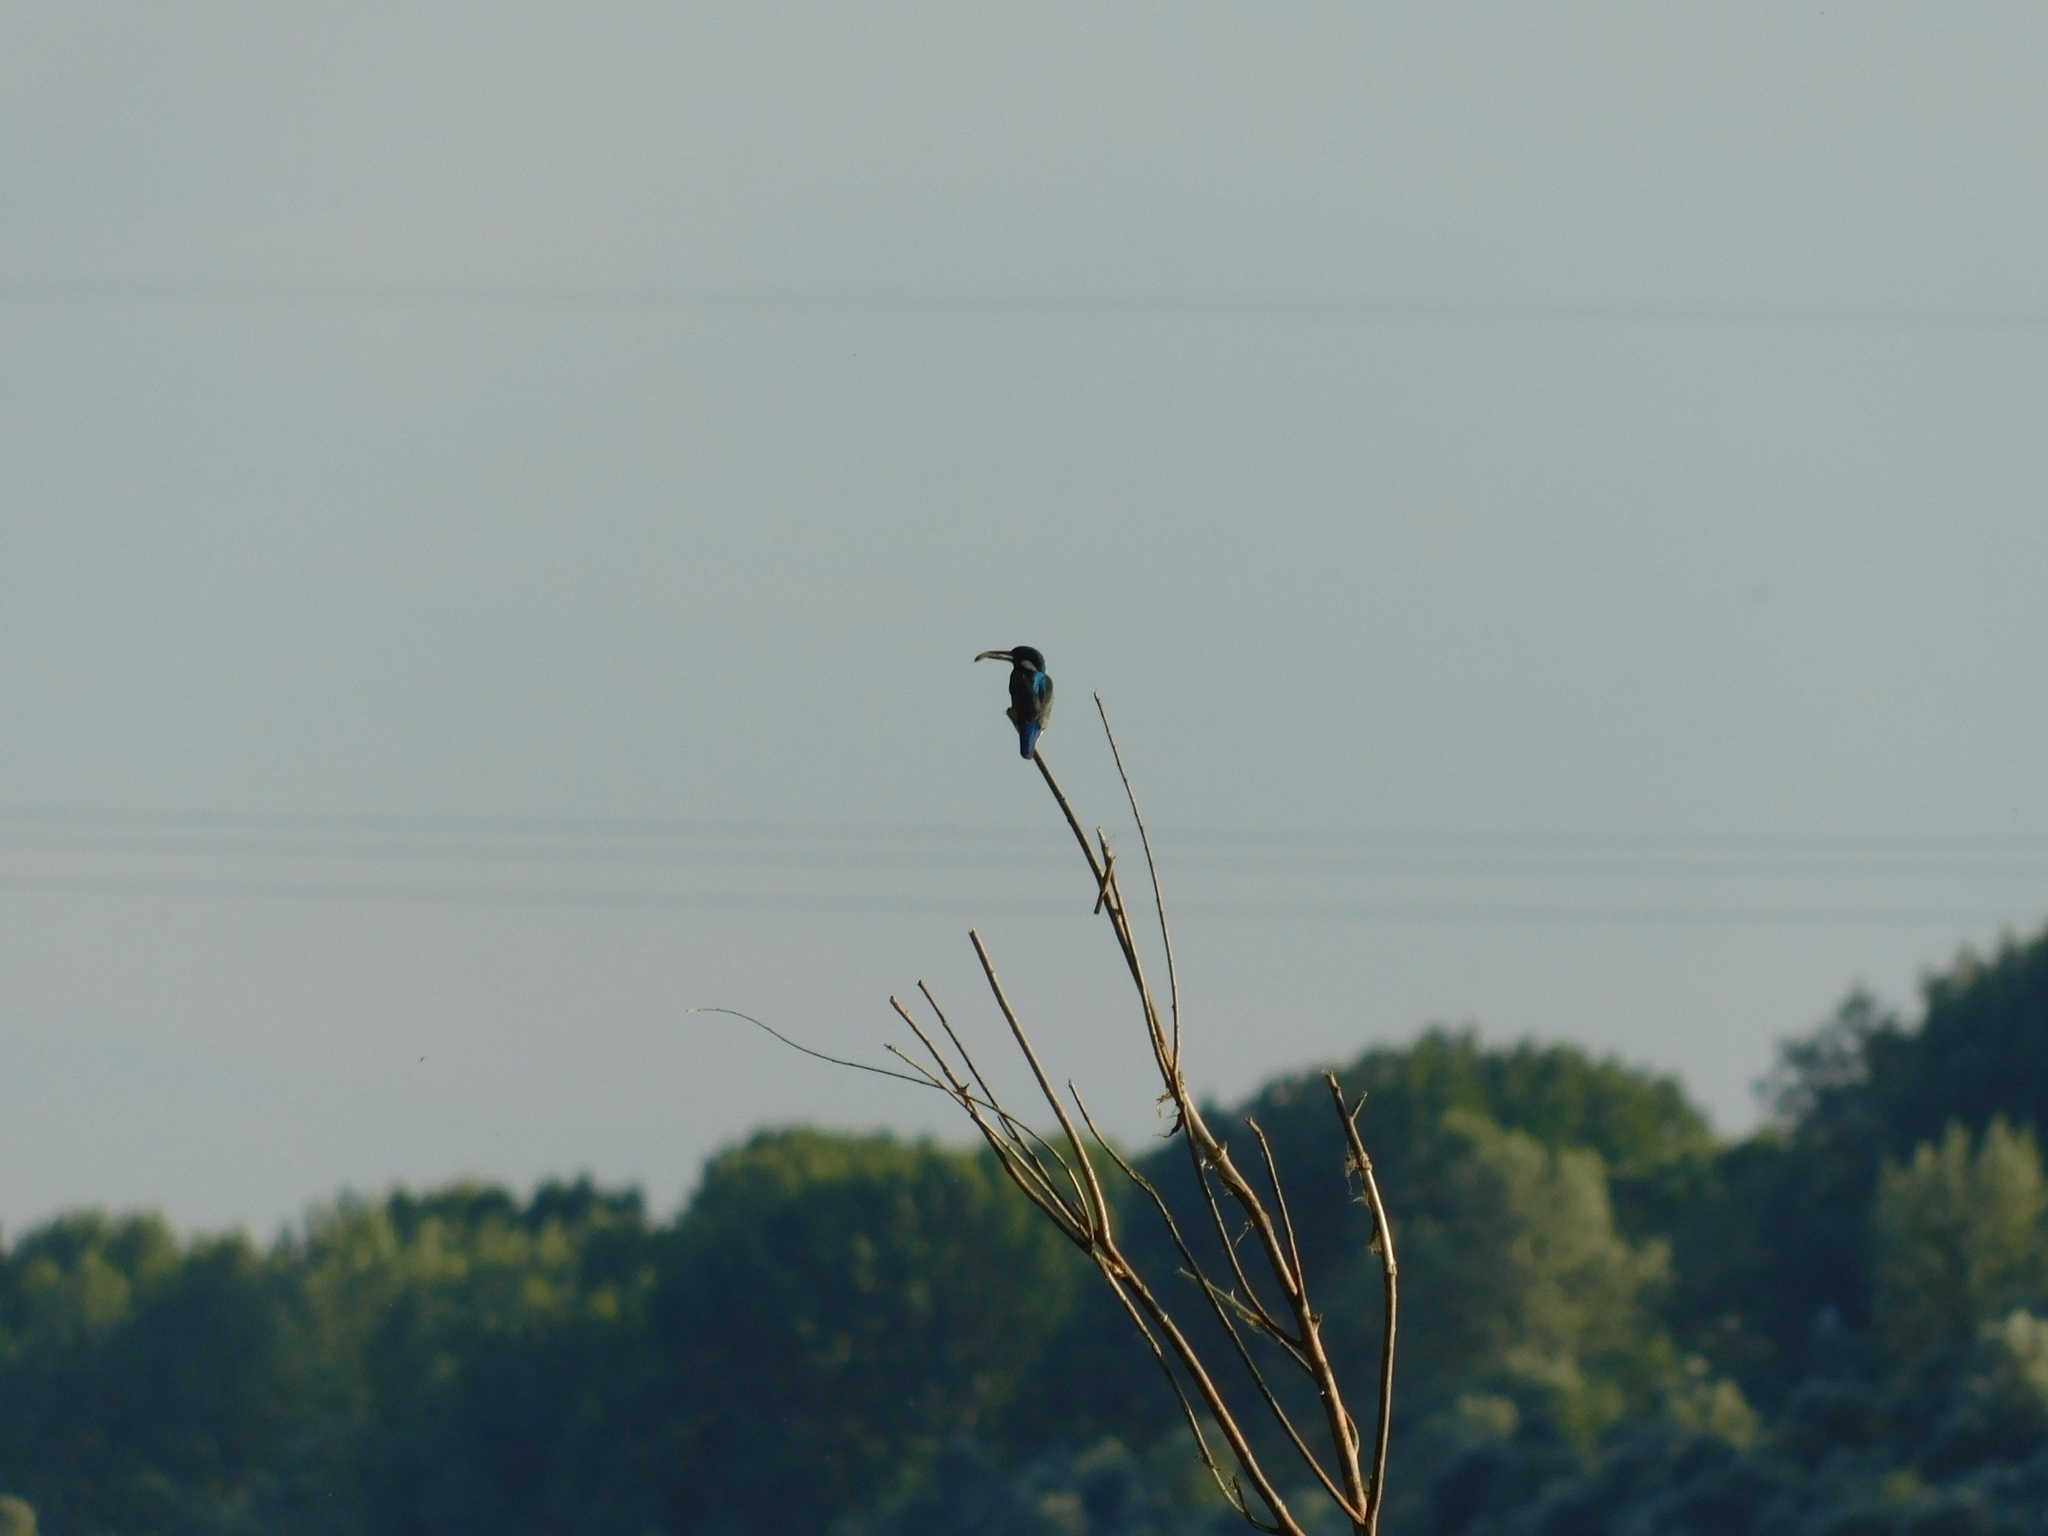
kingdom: Animalia
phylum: Chordata
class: Aves
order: Coraciiformes
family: Alcedinidae
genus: Alcedo
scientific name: Alcedo atthis
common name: Common kingfisher
